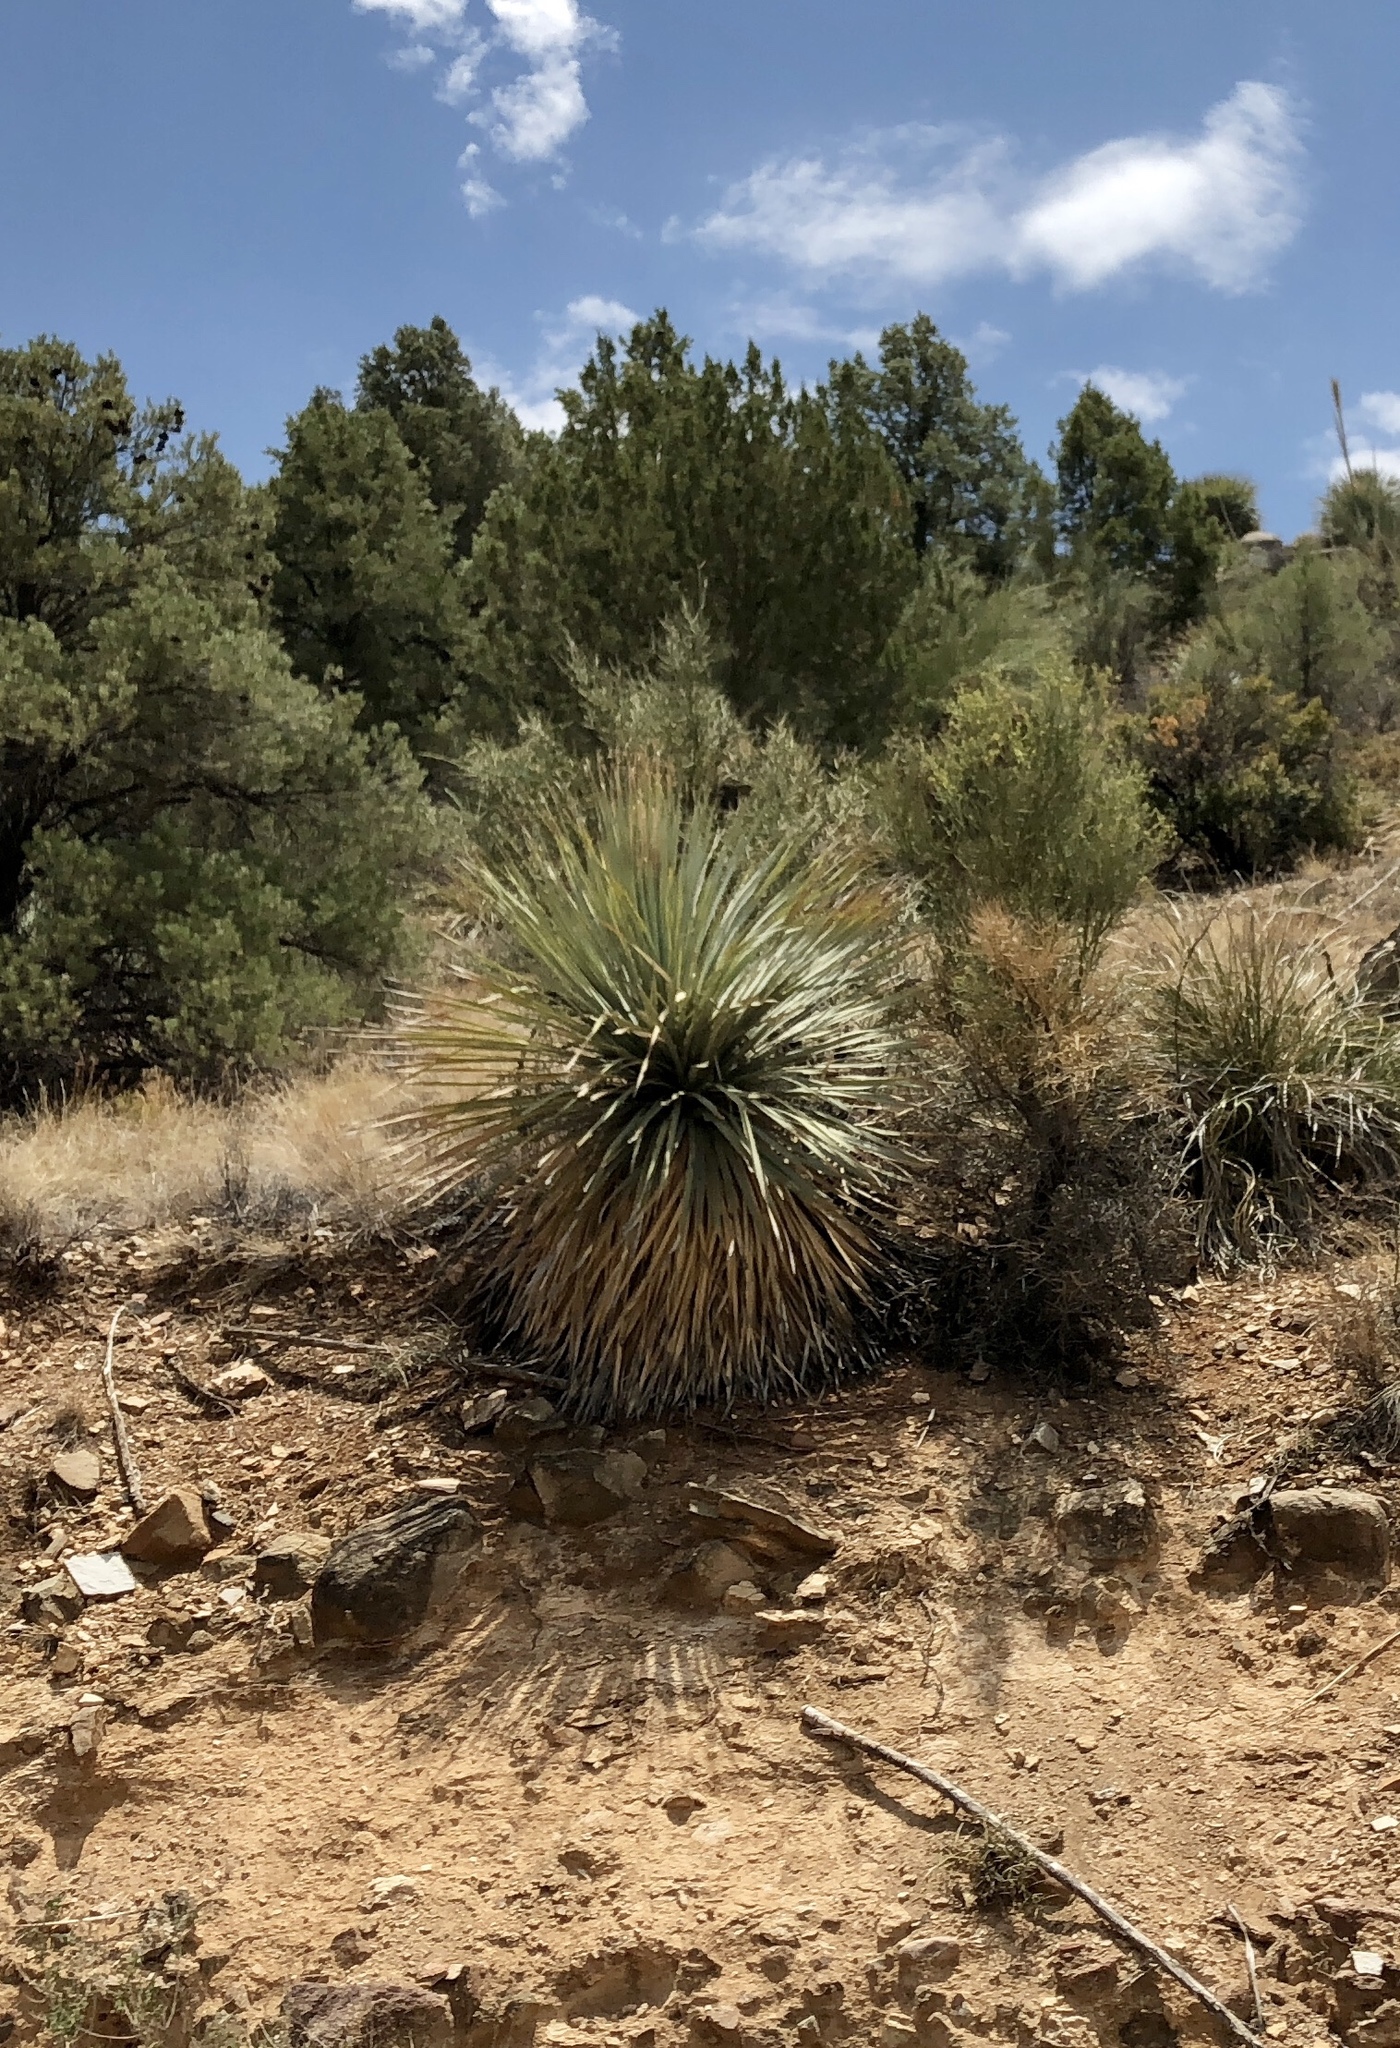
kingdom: Plantae
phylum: Tracheophyta
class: Liliopsida
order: Asparagales
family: Asparagaceae
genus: Dasylirion
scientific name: Dasylirion wheeleri
